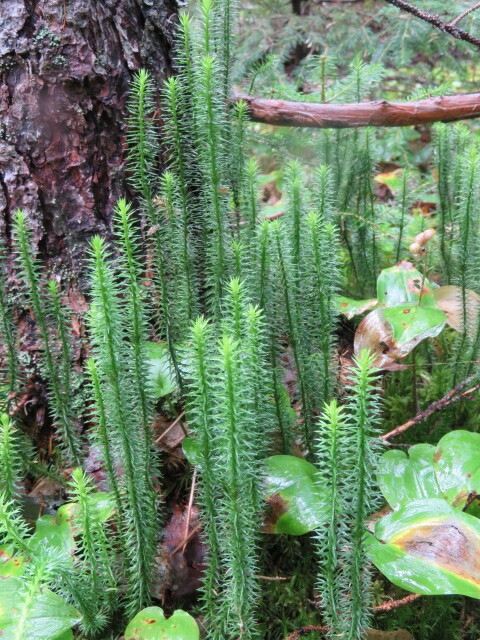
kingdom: Plantae
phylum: Tracheophyta
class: Lycopodiopsida
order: Lycopodiales
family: Lycopodiaceae
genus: Spinulum
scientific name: Spinulum annotinum
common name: Interrupted club-moss
